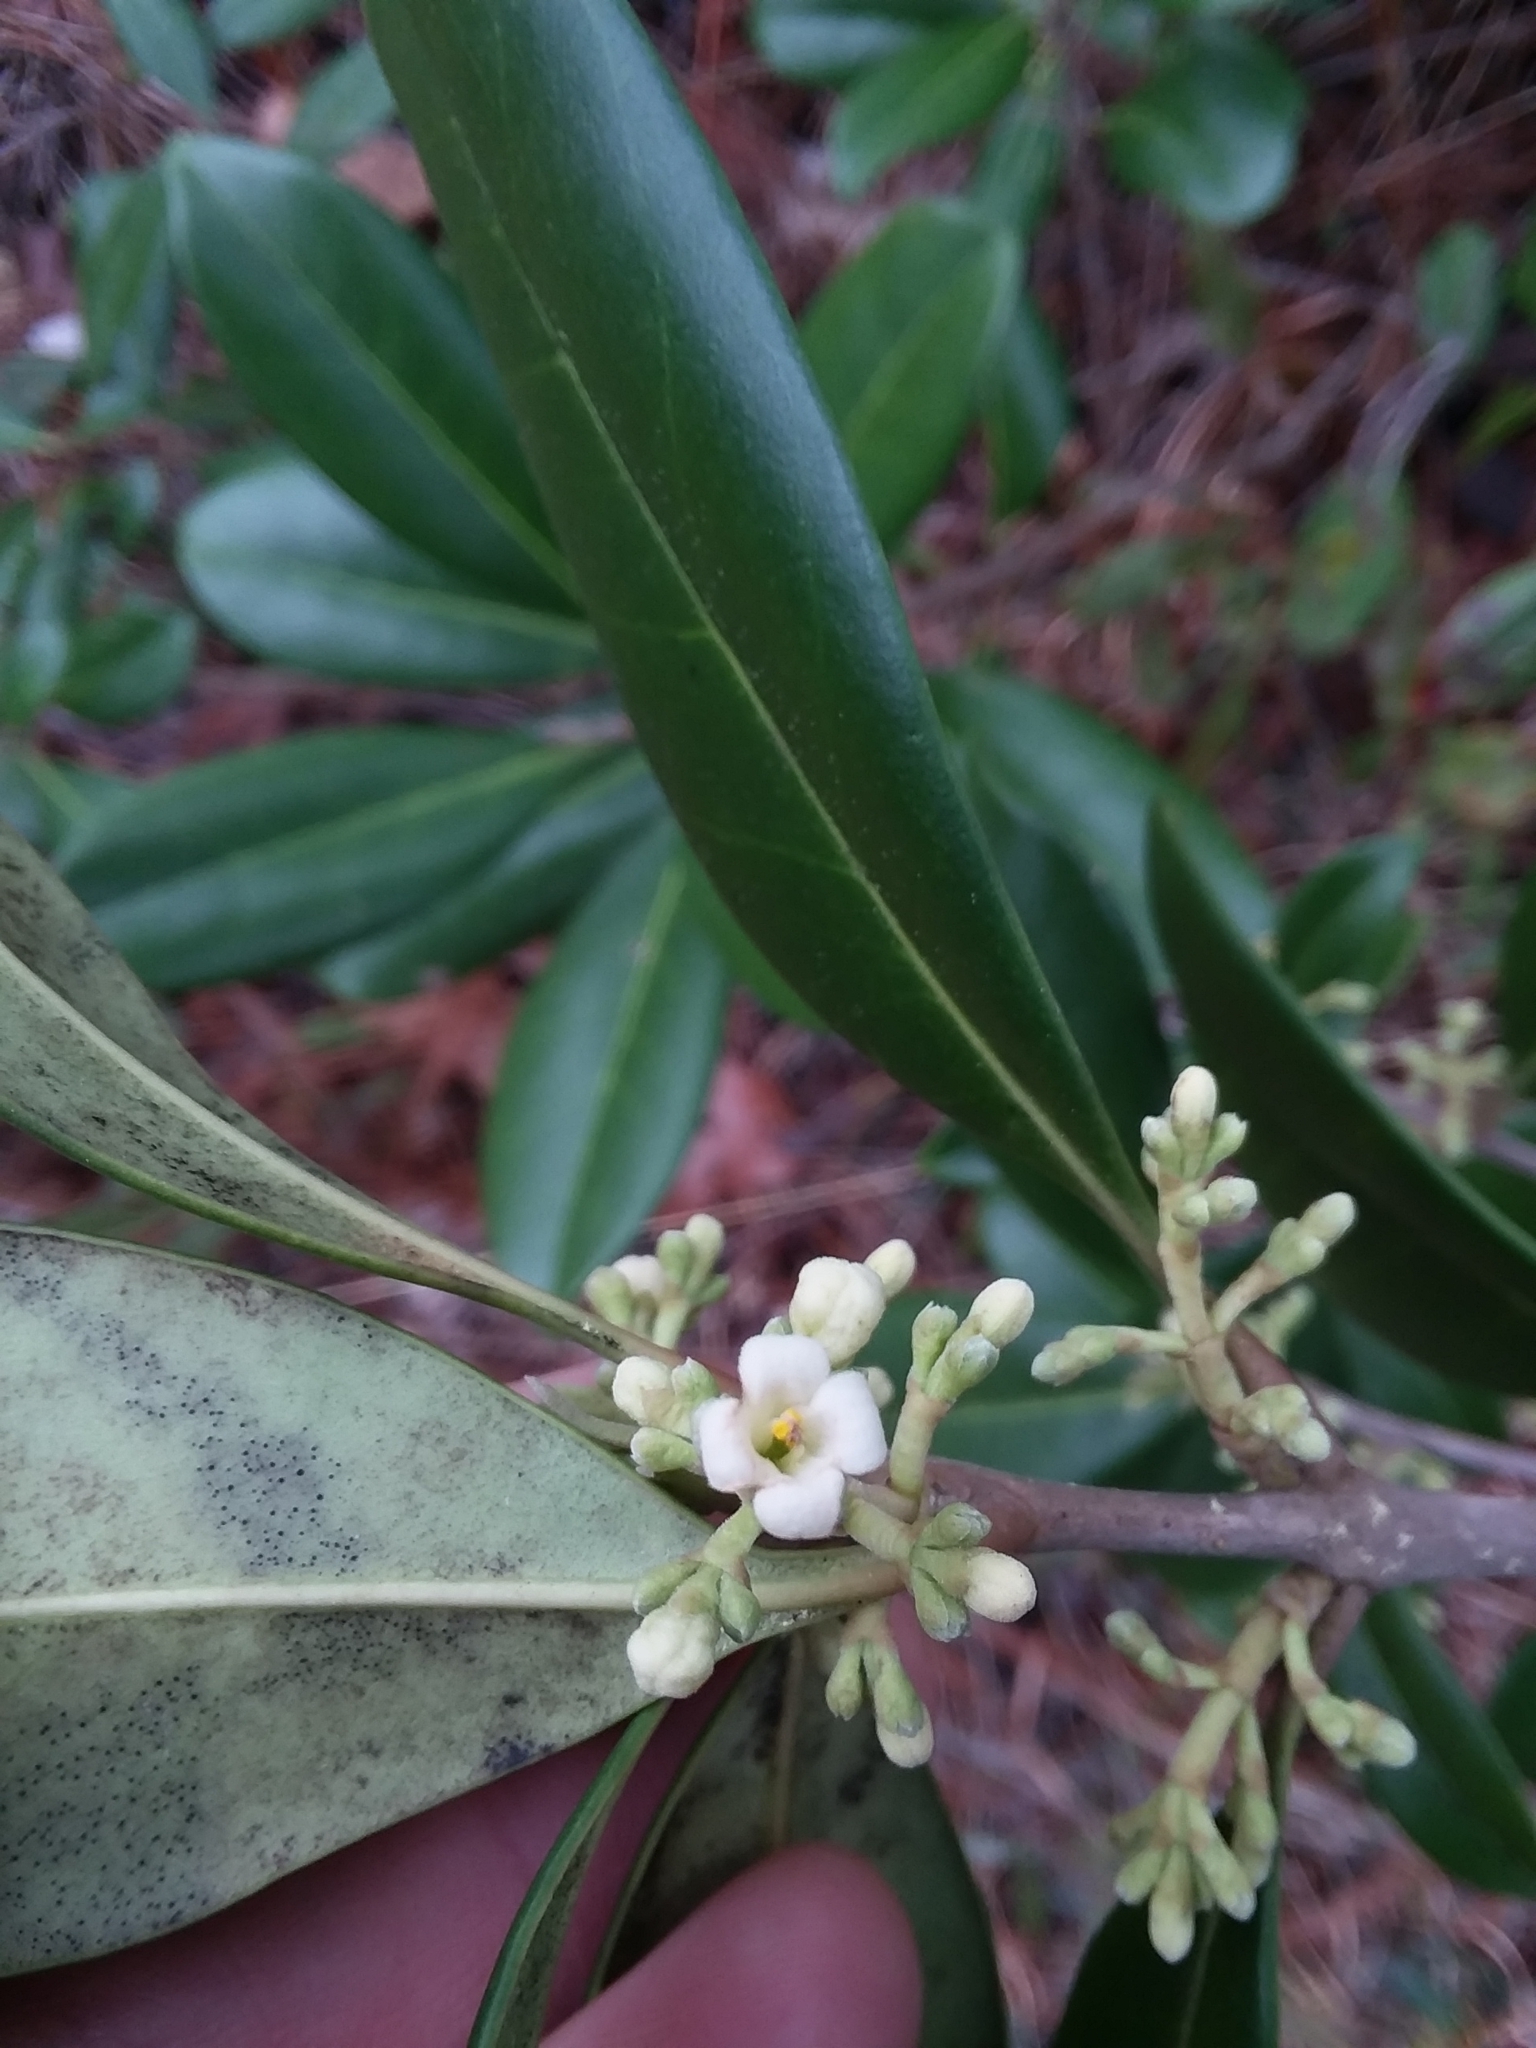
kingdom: Plantae
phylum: Tracheophyta
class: Magnoliopsida
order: Lamiales
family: Oleaceae
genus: Cartrema
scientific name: Cartrema americana
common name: Devilwood
